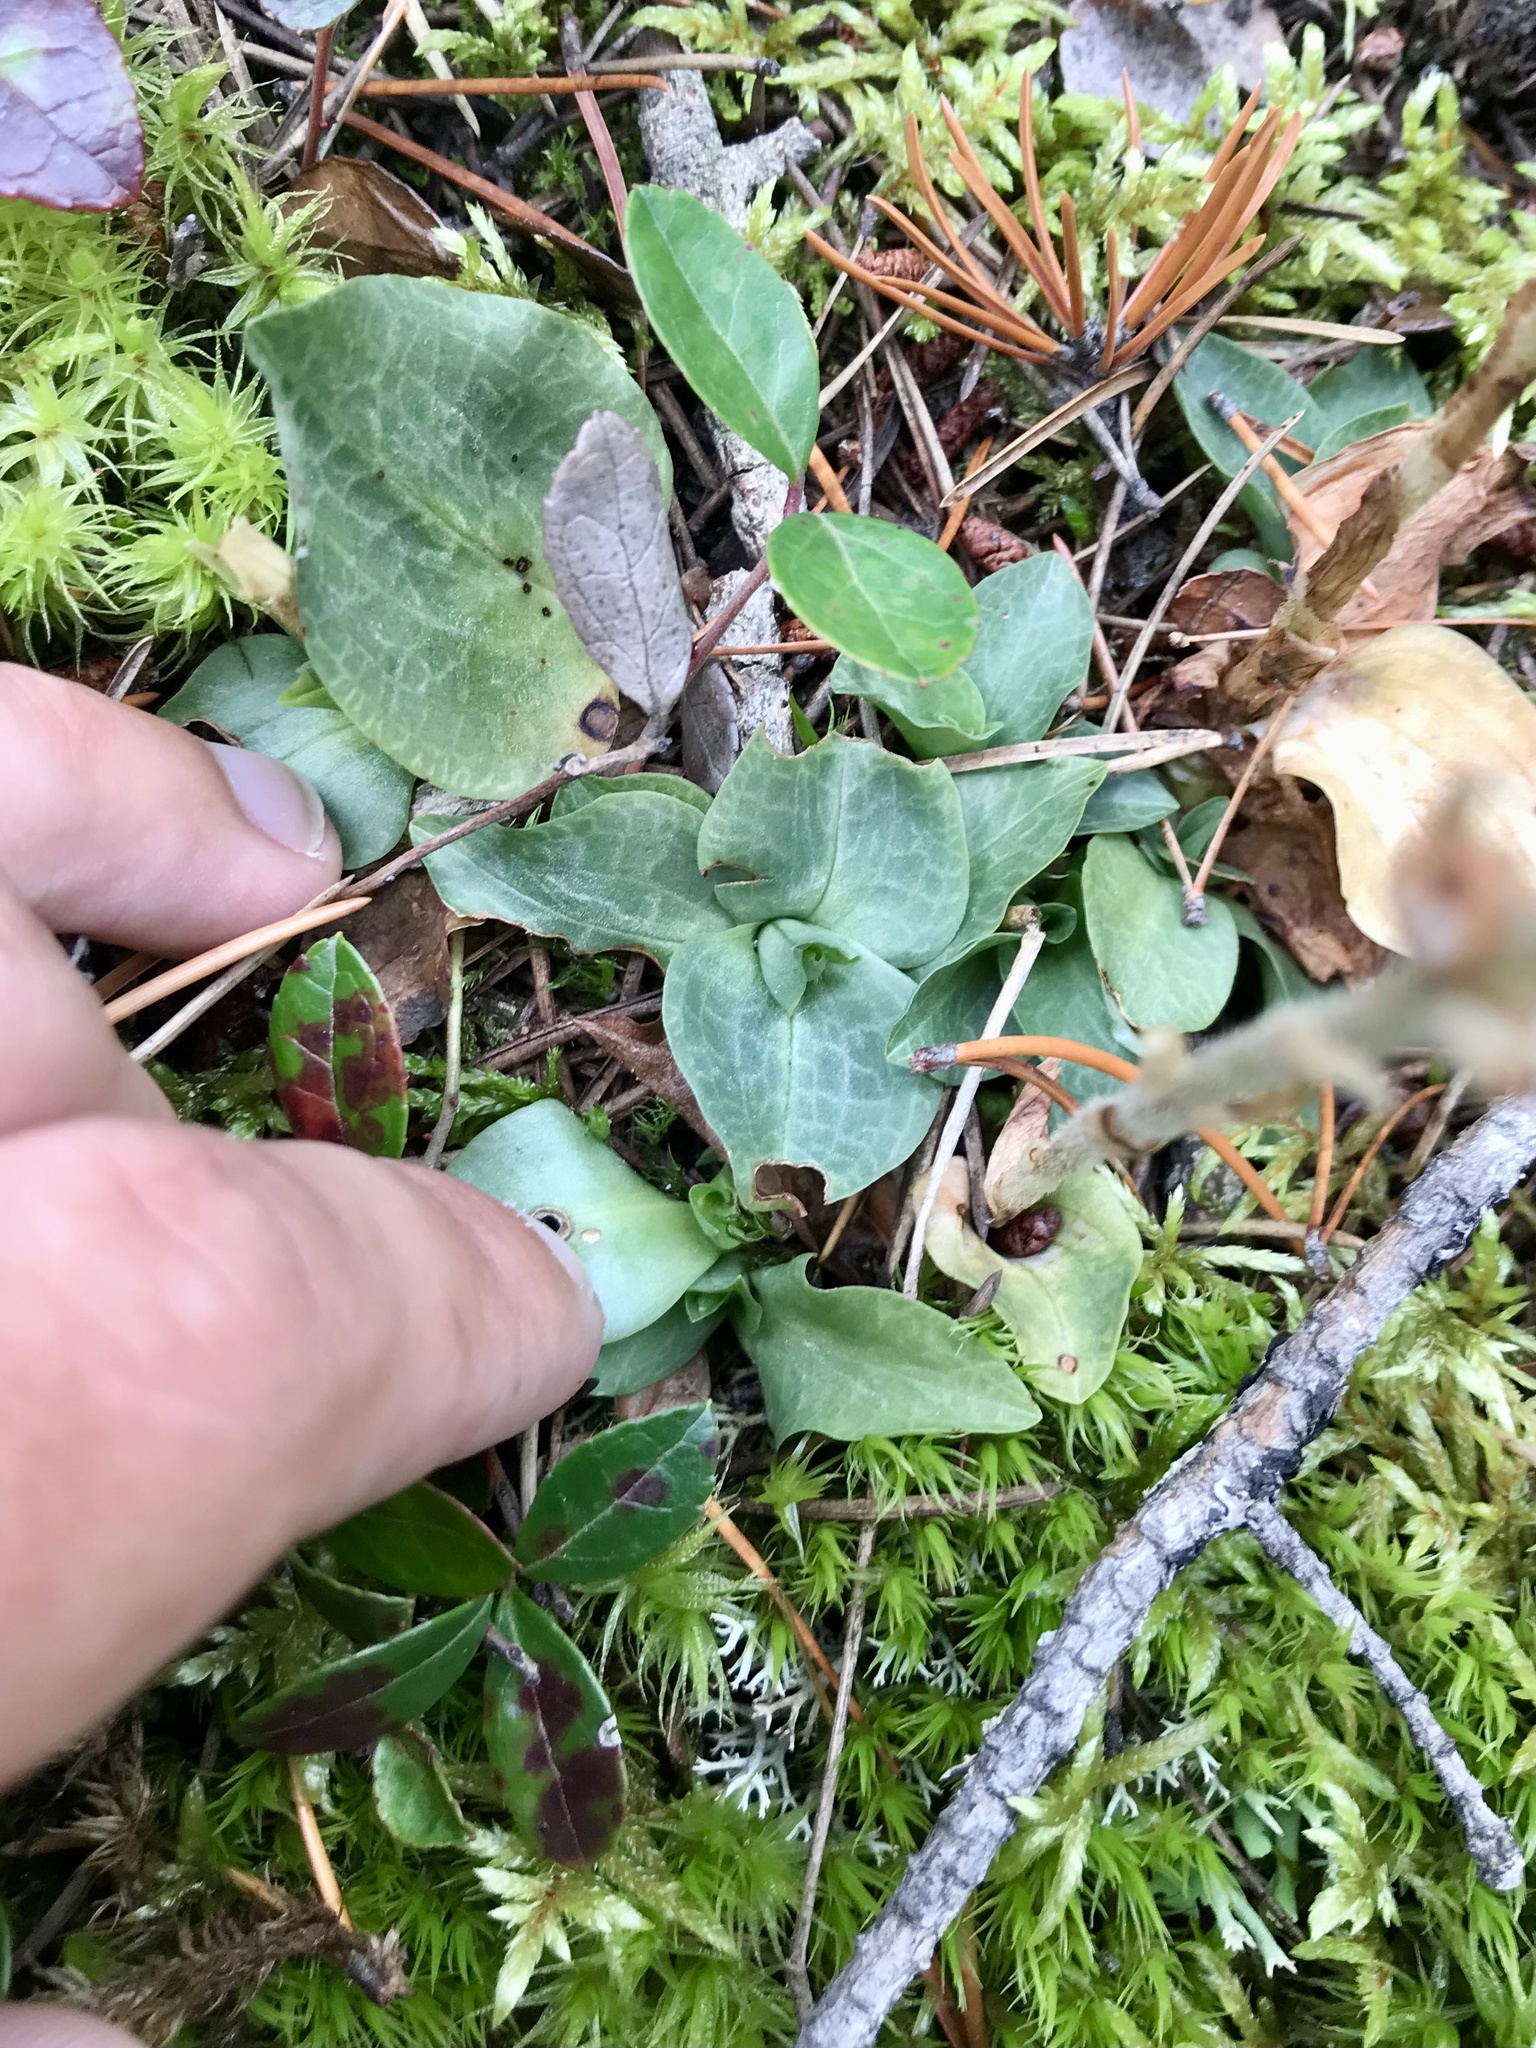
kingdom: Plantae
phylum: Tracheophyta
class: Liliopsida
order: Asparagales
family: Orchidaceae
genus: Goodyera
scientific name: Goodyera tesselata
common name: Checkered rattlesnake-plantain
